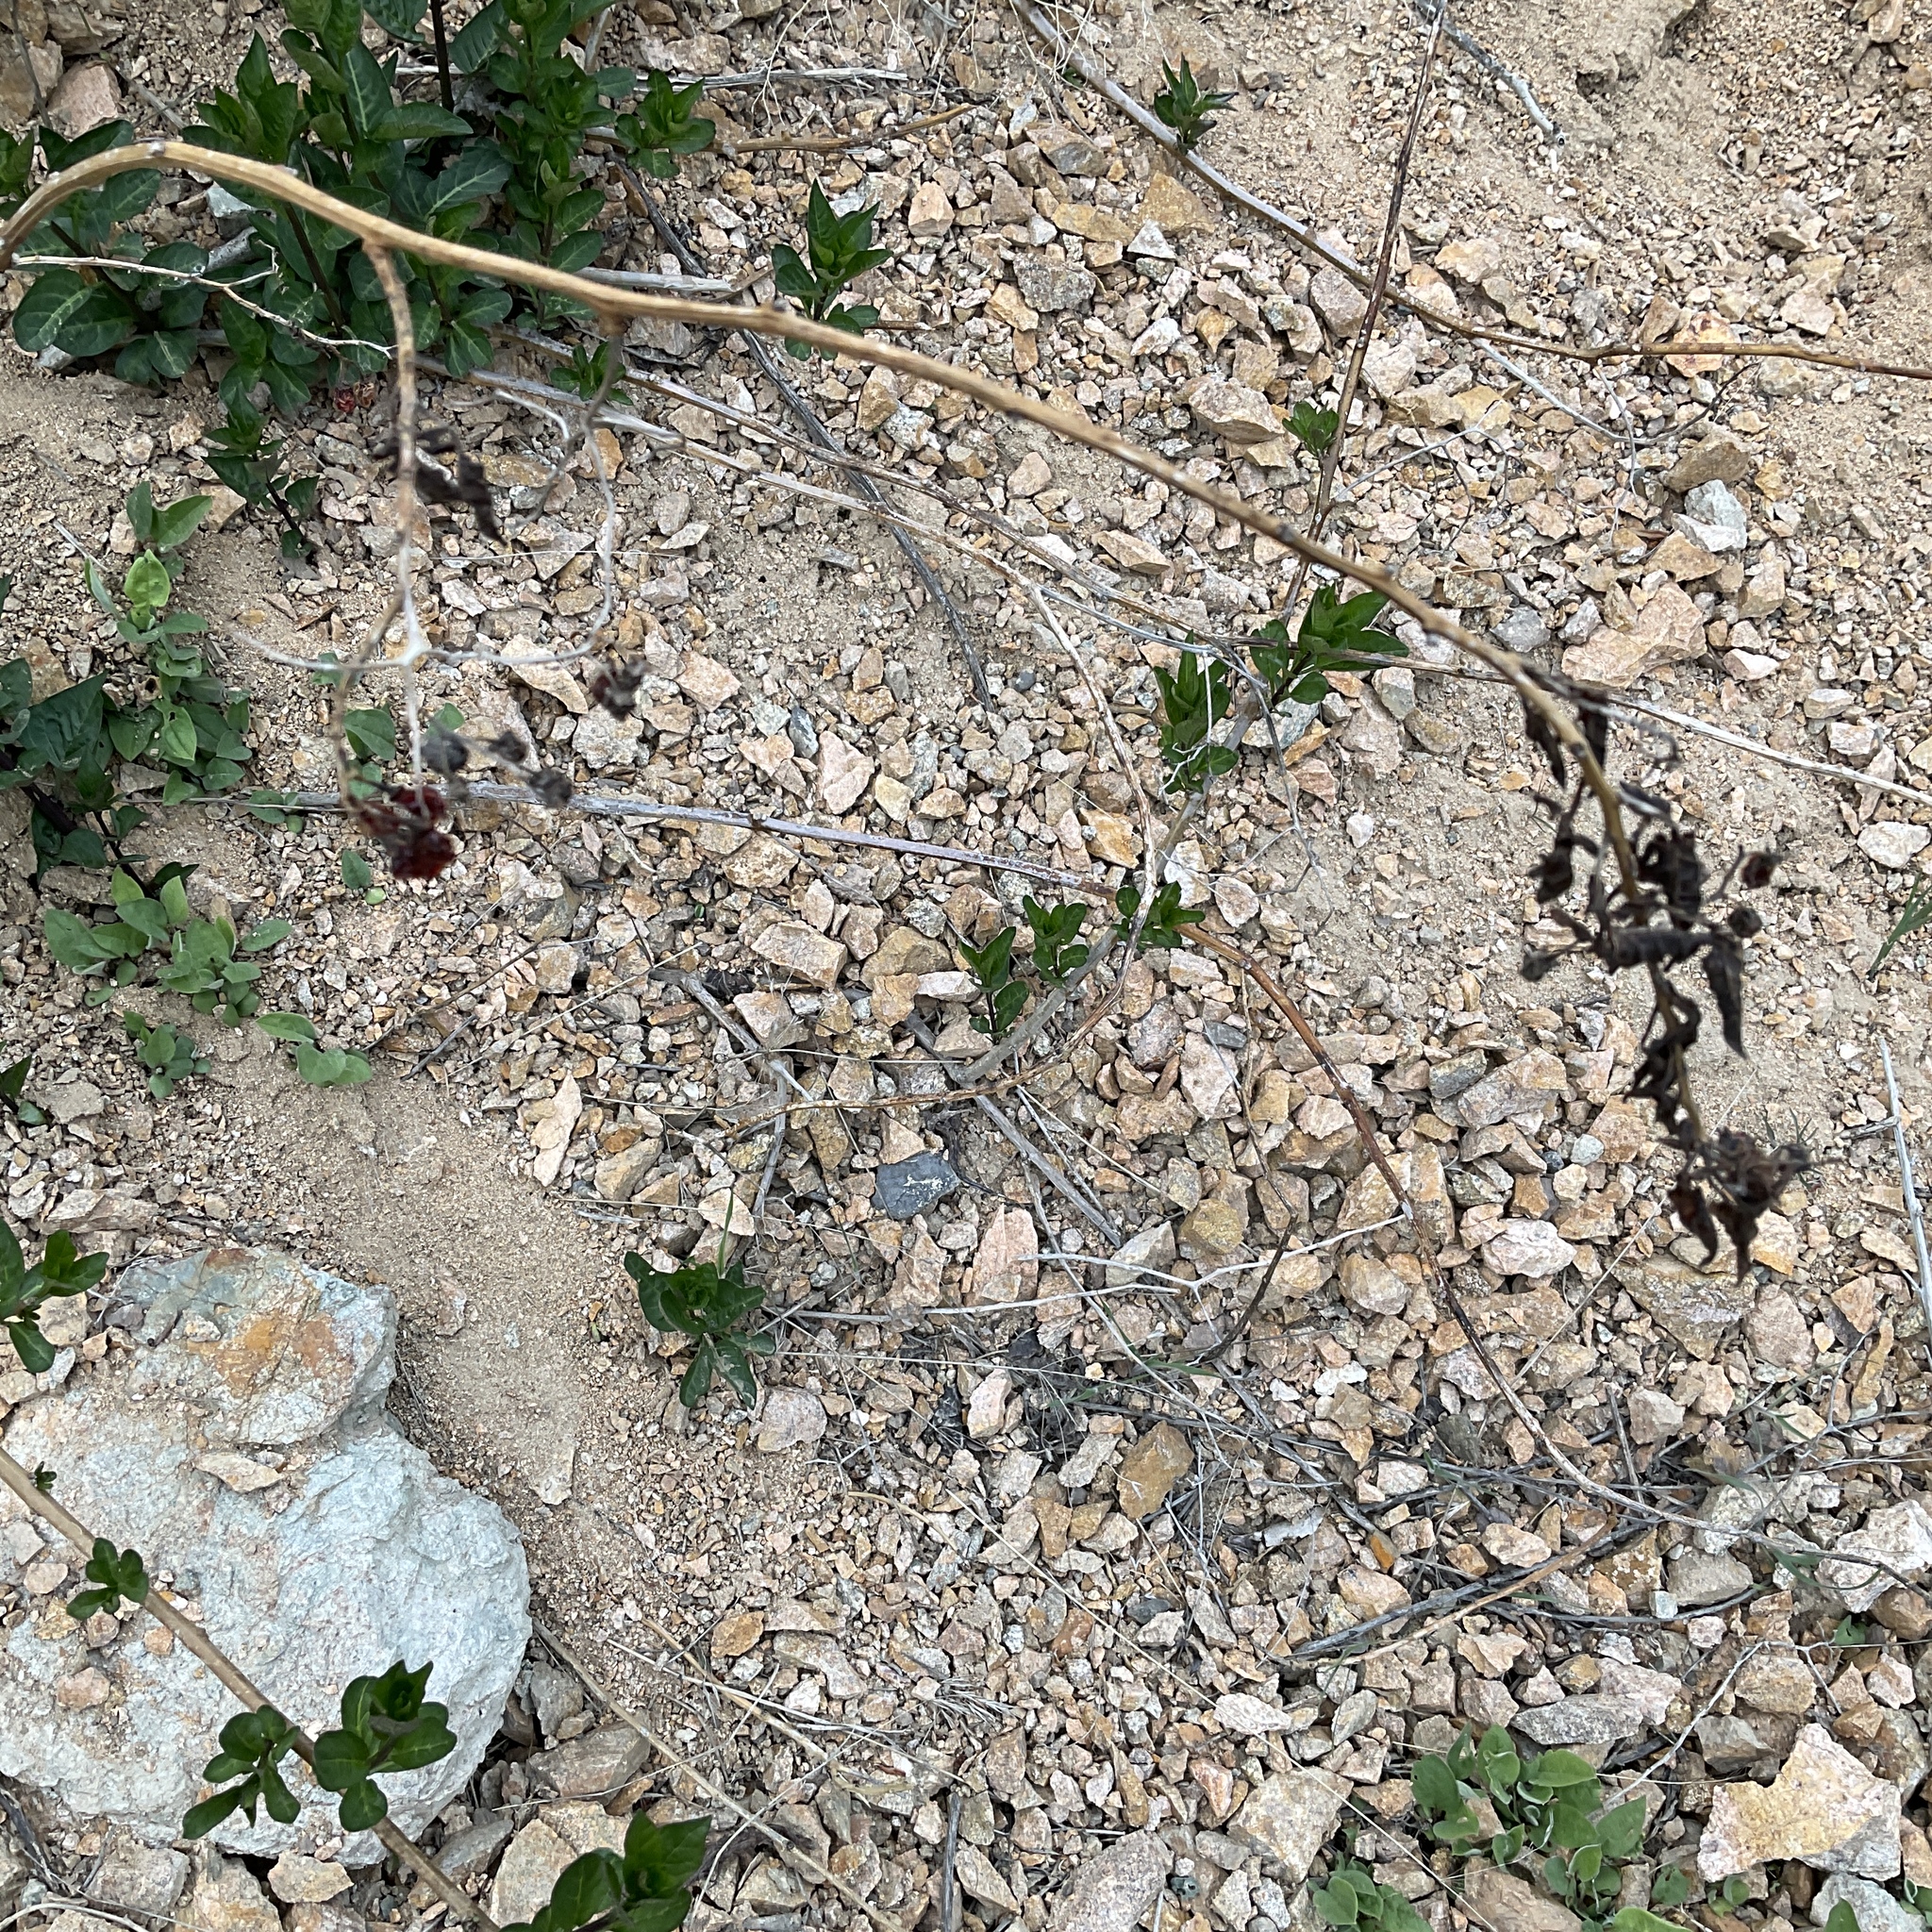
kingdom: Plantae
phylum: Tracheophyta
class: Magnoliopsida
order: Solanales
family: Solanaceae
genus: Solanum
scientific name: Solanum dulcamara
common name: Climbing nightshade
